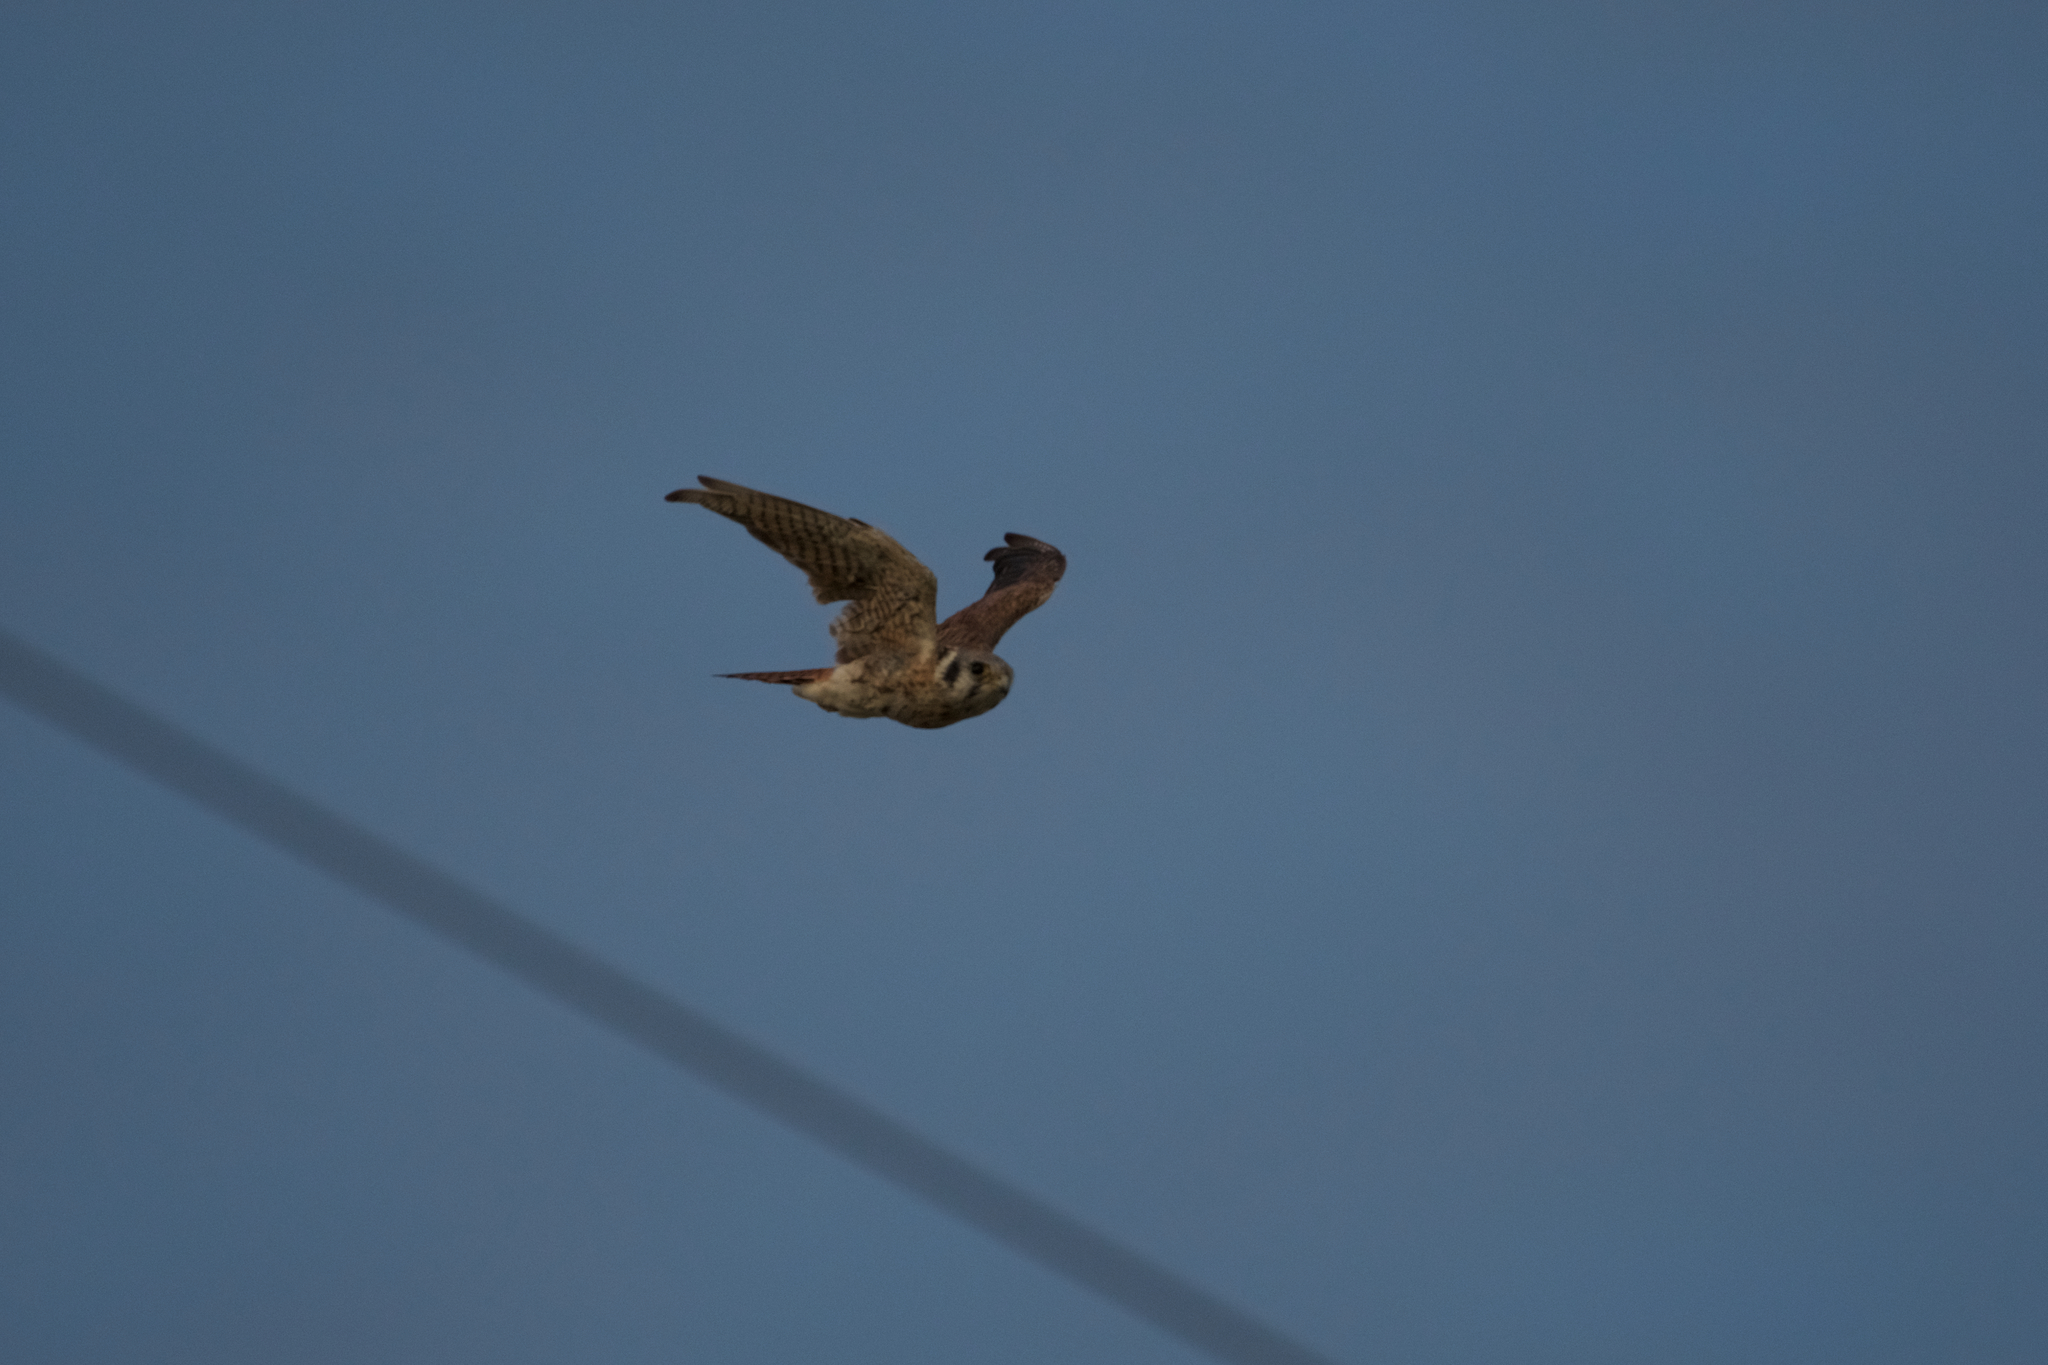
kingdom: Animalia
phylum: Chordata
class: Aves
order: Falconiformes
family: Falconidae
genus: Falco
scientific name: Falco sparverius
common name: American kestrel
